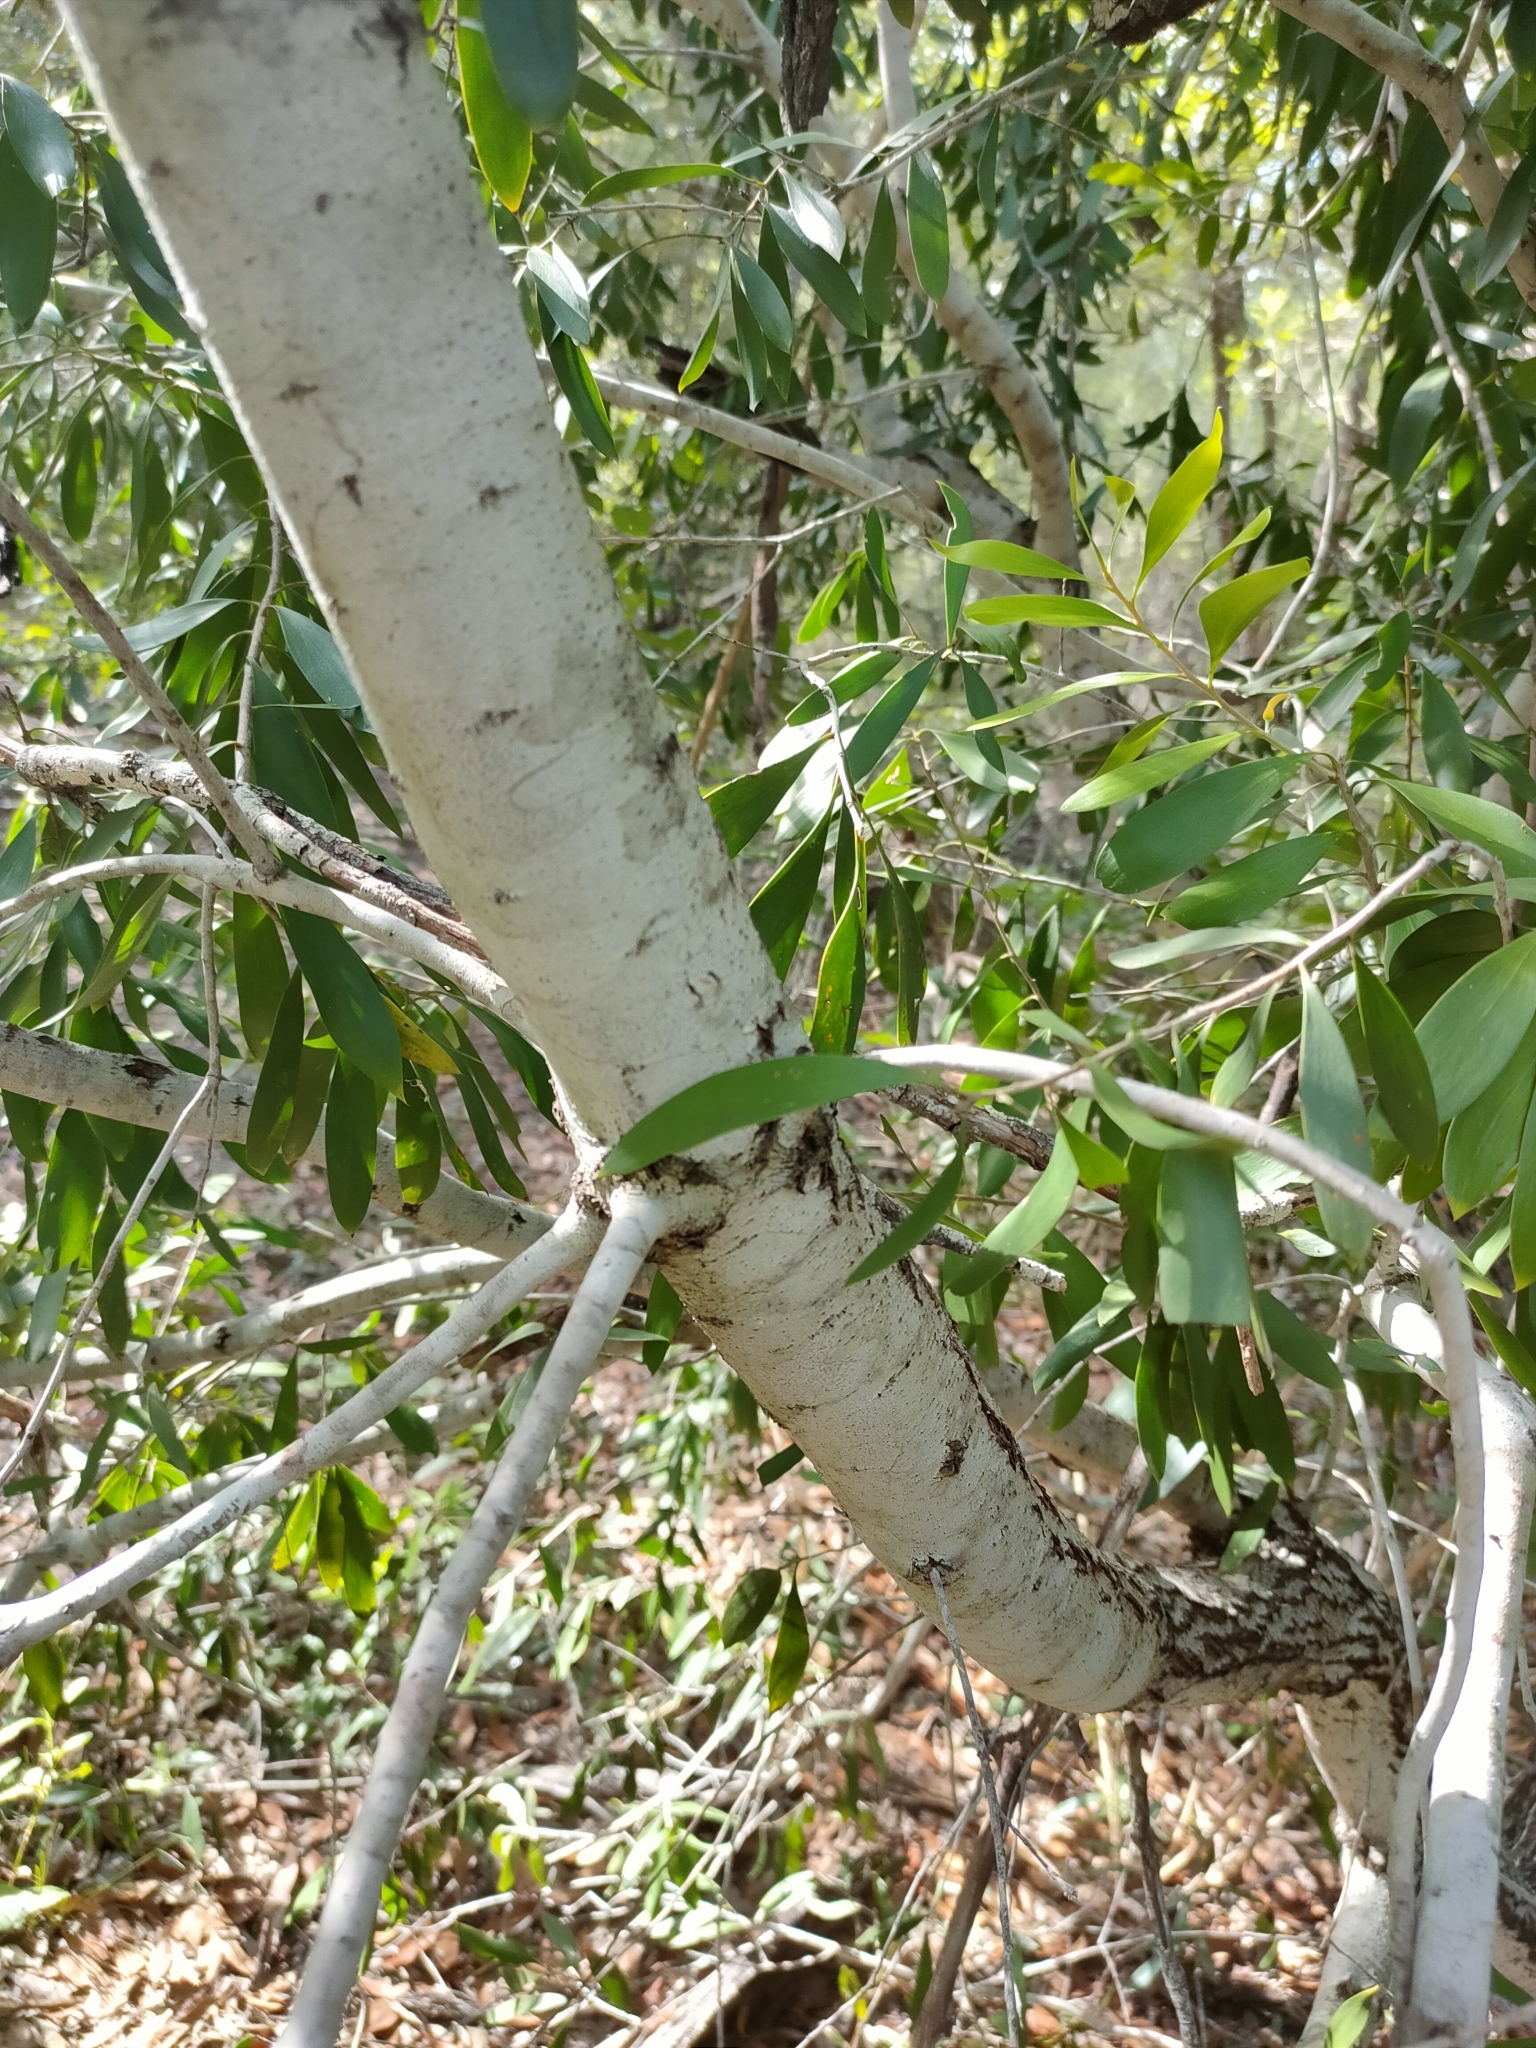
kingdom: Plantae
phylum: Tracheophyta
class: Magnoliopsida
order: Proteales
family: Proteaceae
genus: Persoonia
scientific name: Persoonia amaliae
